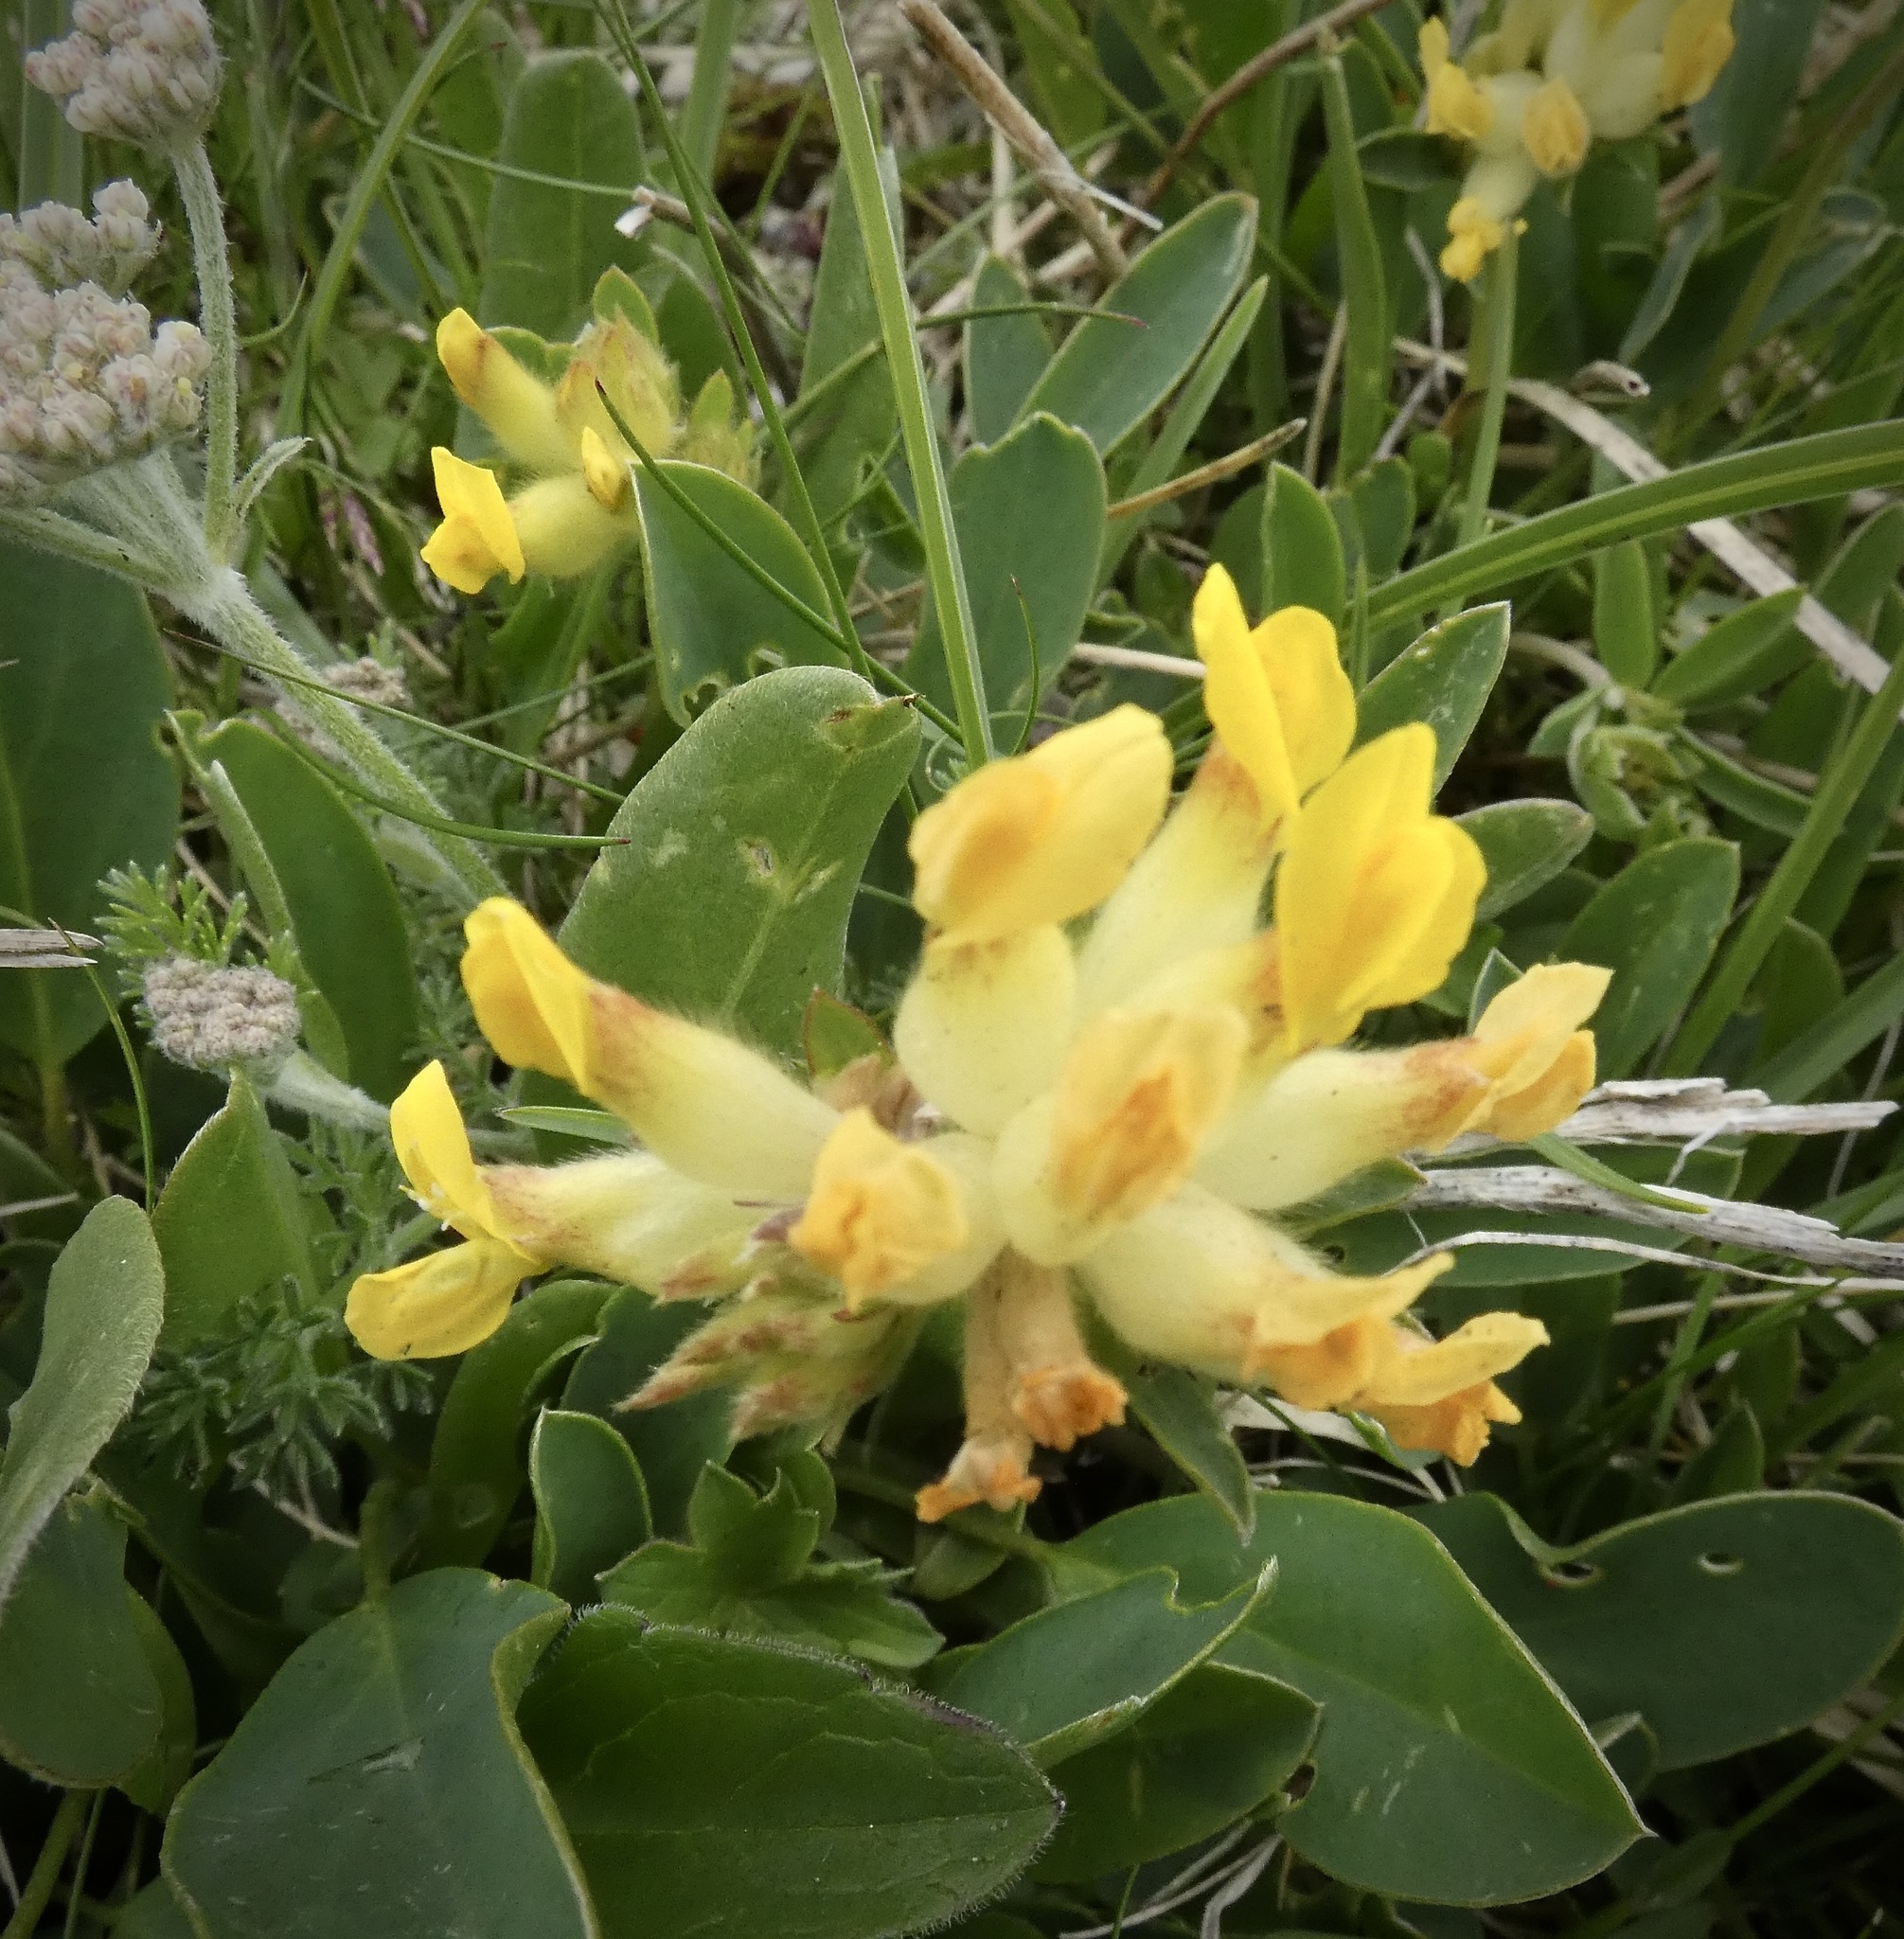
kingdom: Plantae
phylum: Tracheophyta
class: Magnoliopsida
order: Fabales
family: Fabaceae
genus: Anthyllis
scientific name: Anthyllis vulneraria
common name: Kidney vetch
